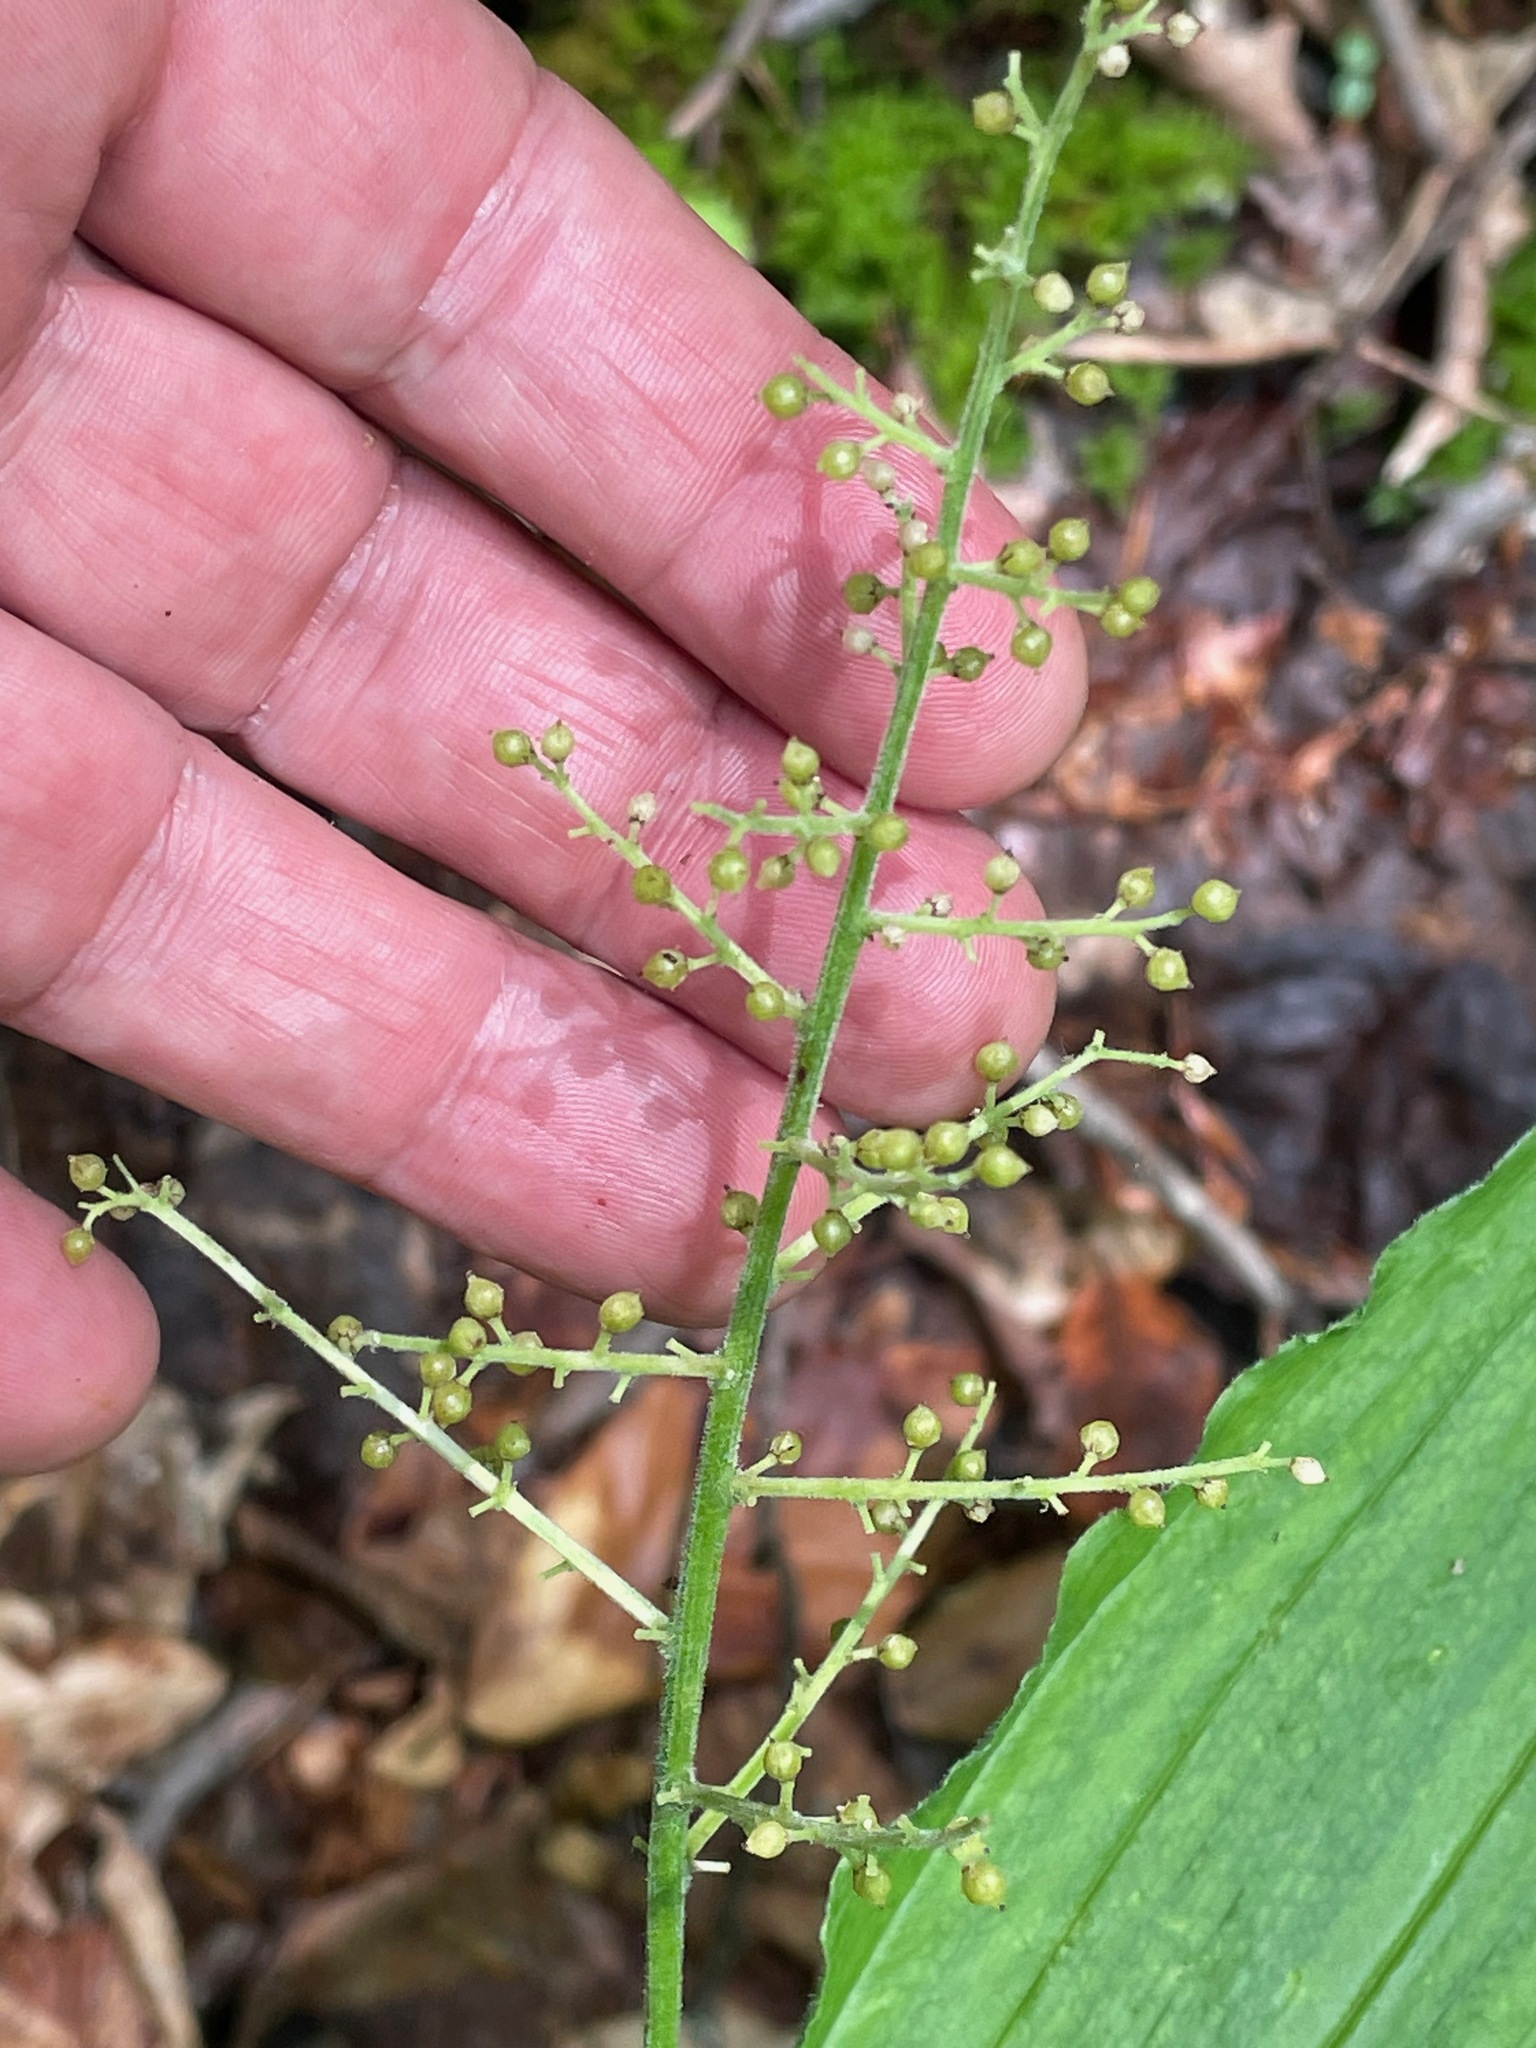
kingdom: Plantae
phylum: Tracheophyta
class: Liliopsida
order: Asparagales
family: Asparagaceae
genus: Maianthemum
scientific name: Maianthemum racemosum
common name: False spikenard
